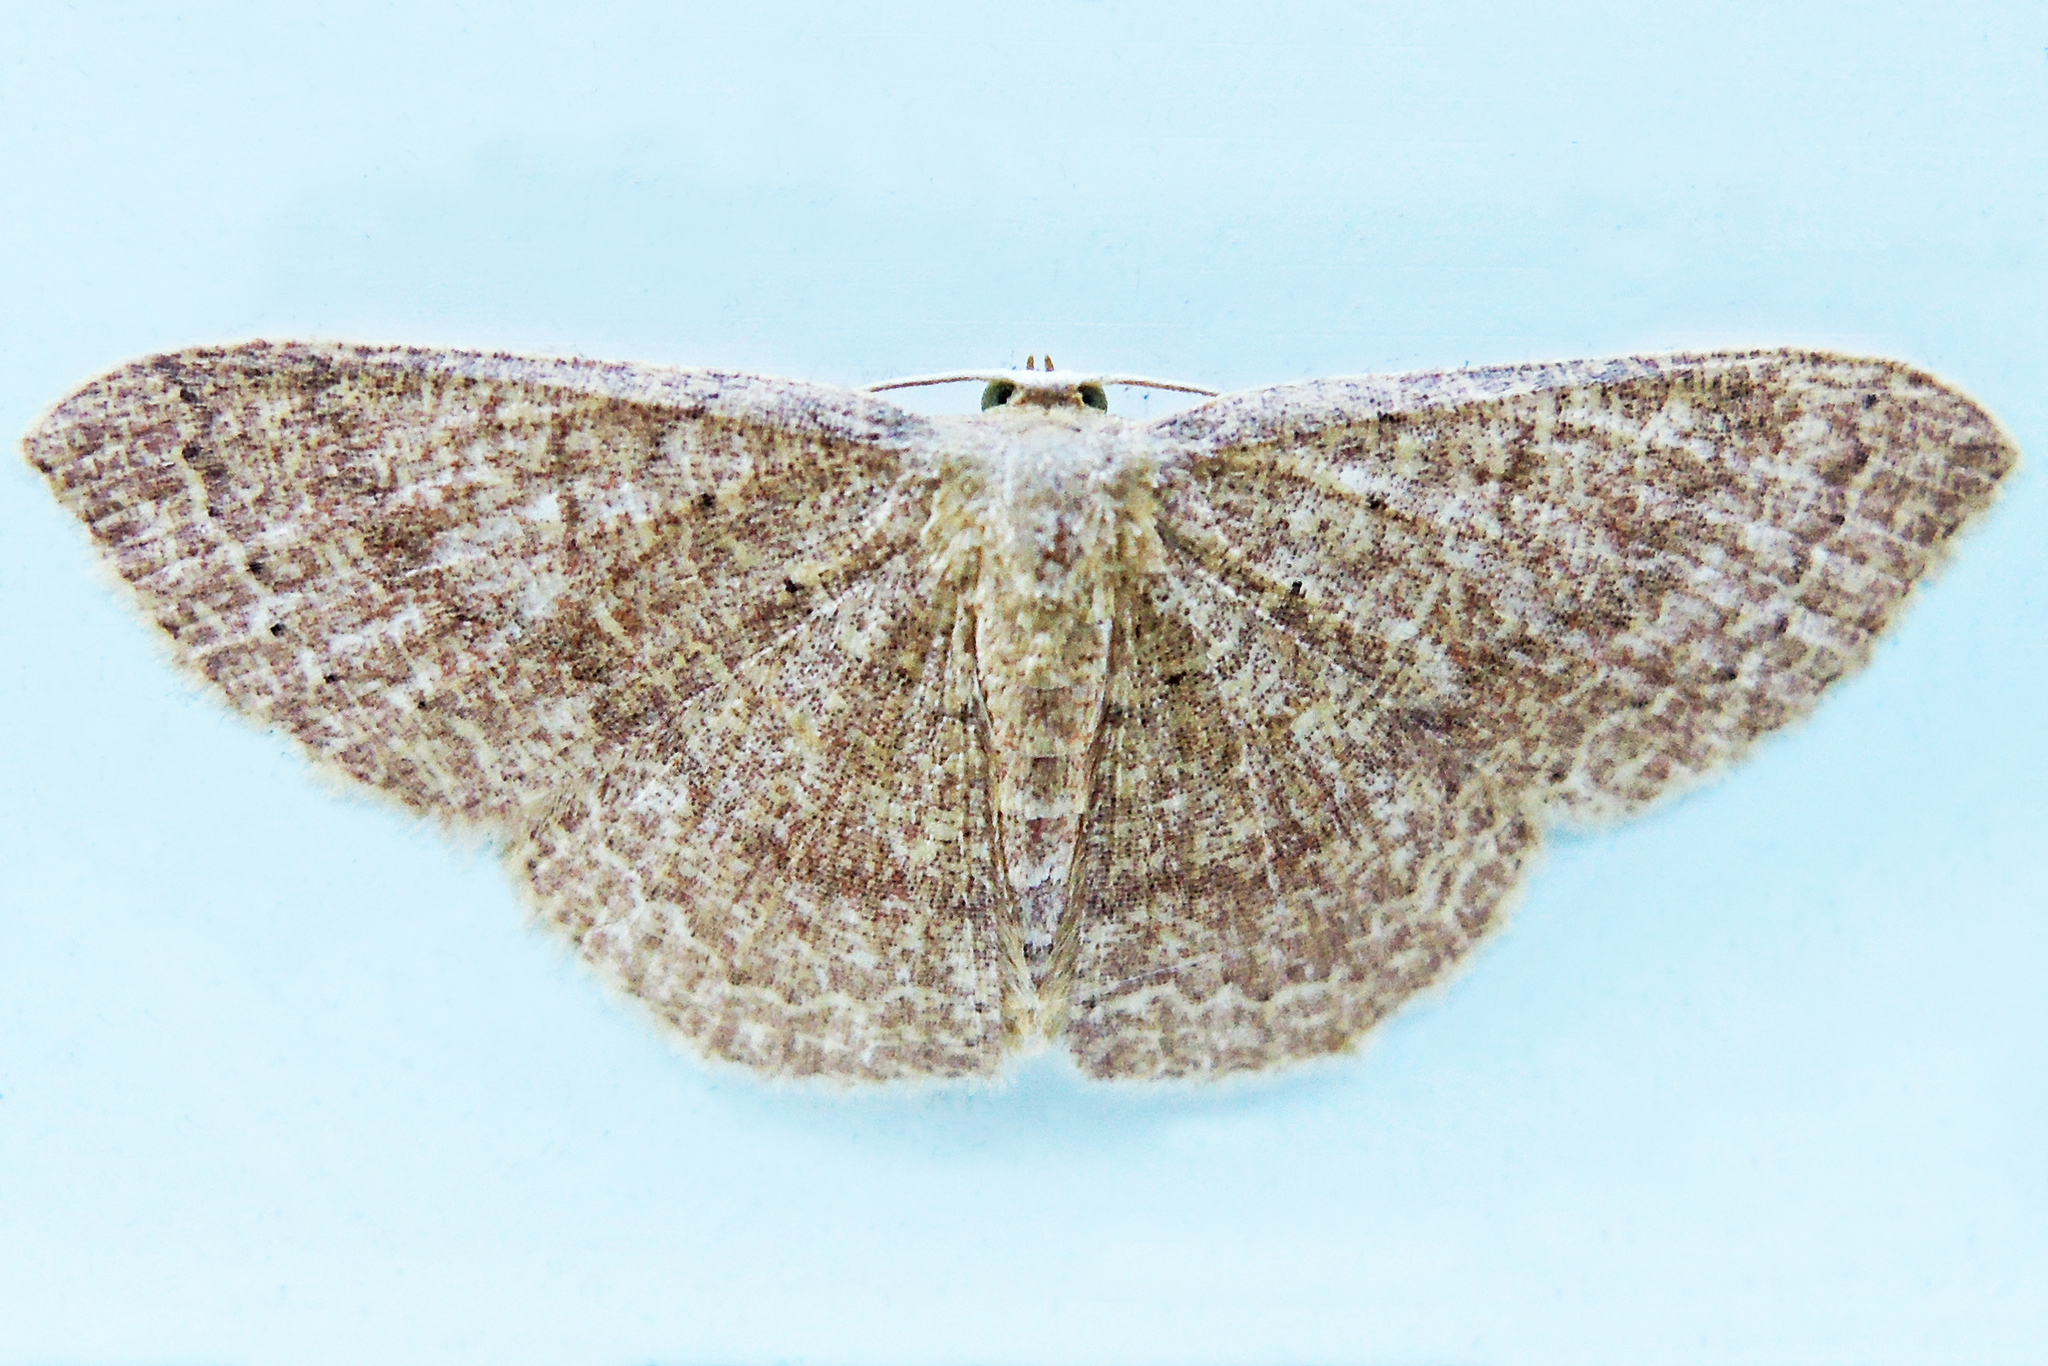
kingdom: Animalia
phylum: Arthropoda
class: Insecta
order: Lepidoptera
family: Geometridae
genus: Pleuroprucha
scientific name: Pleuroprucha insulsaria
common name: Common tan wave
